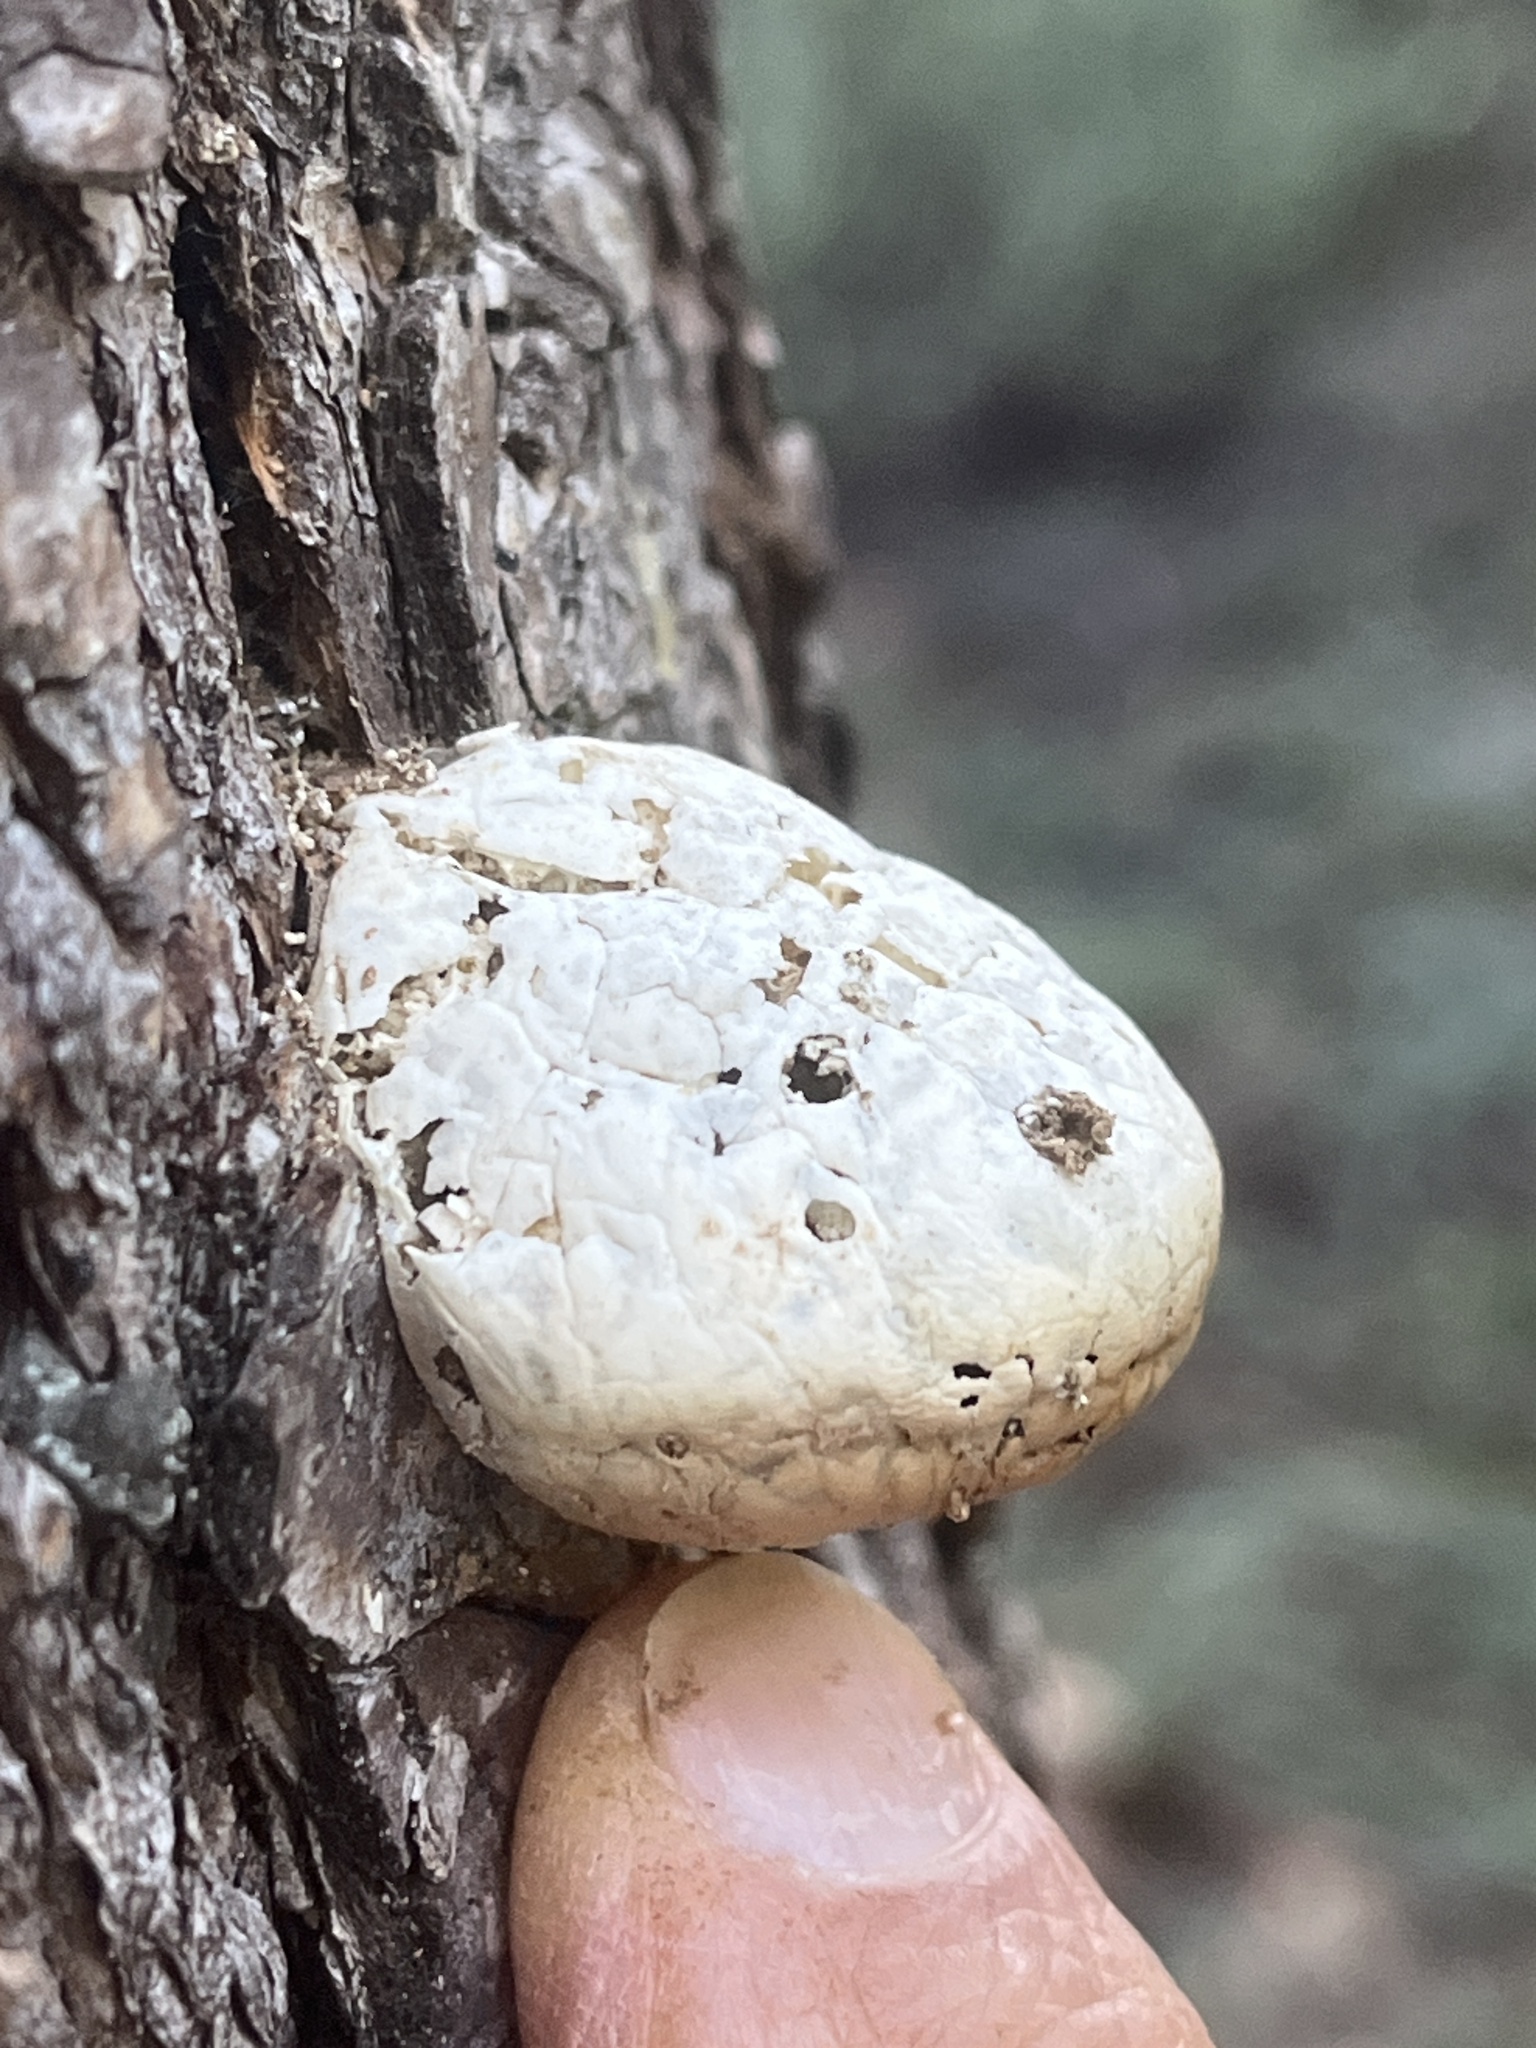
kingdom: Fungi
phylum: Basidiomycota
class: Agaricomycetes
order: Polyporales
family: Polyporaceae
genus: Cryptoporus
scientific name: Cryptoporus volvatus
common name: Veiled polypore
